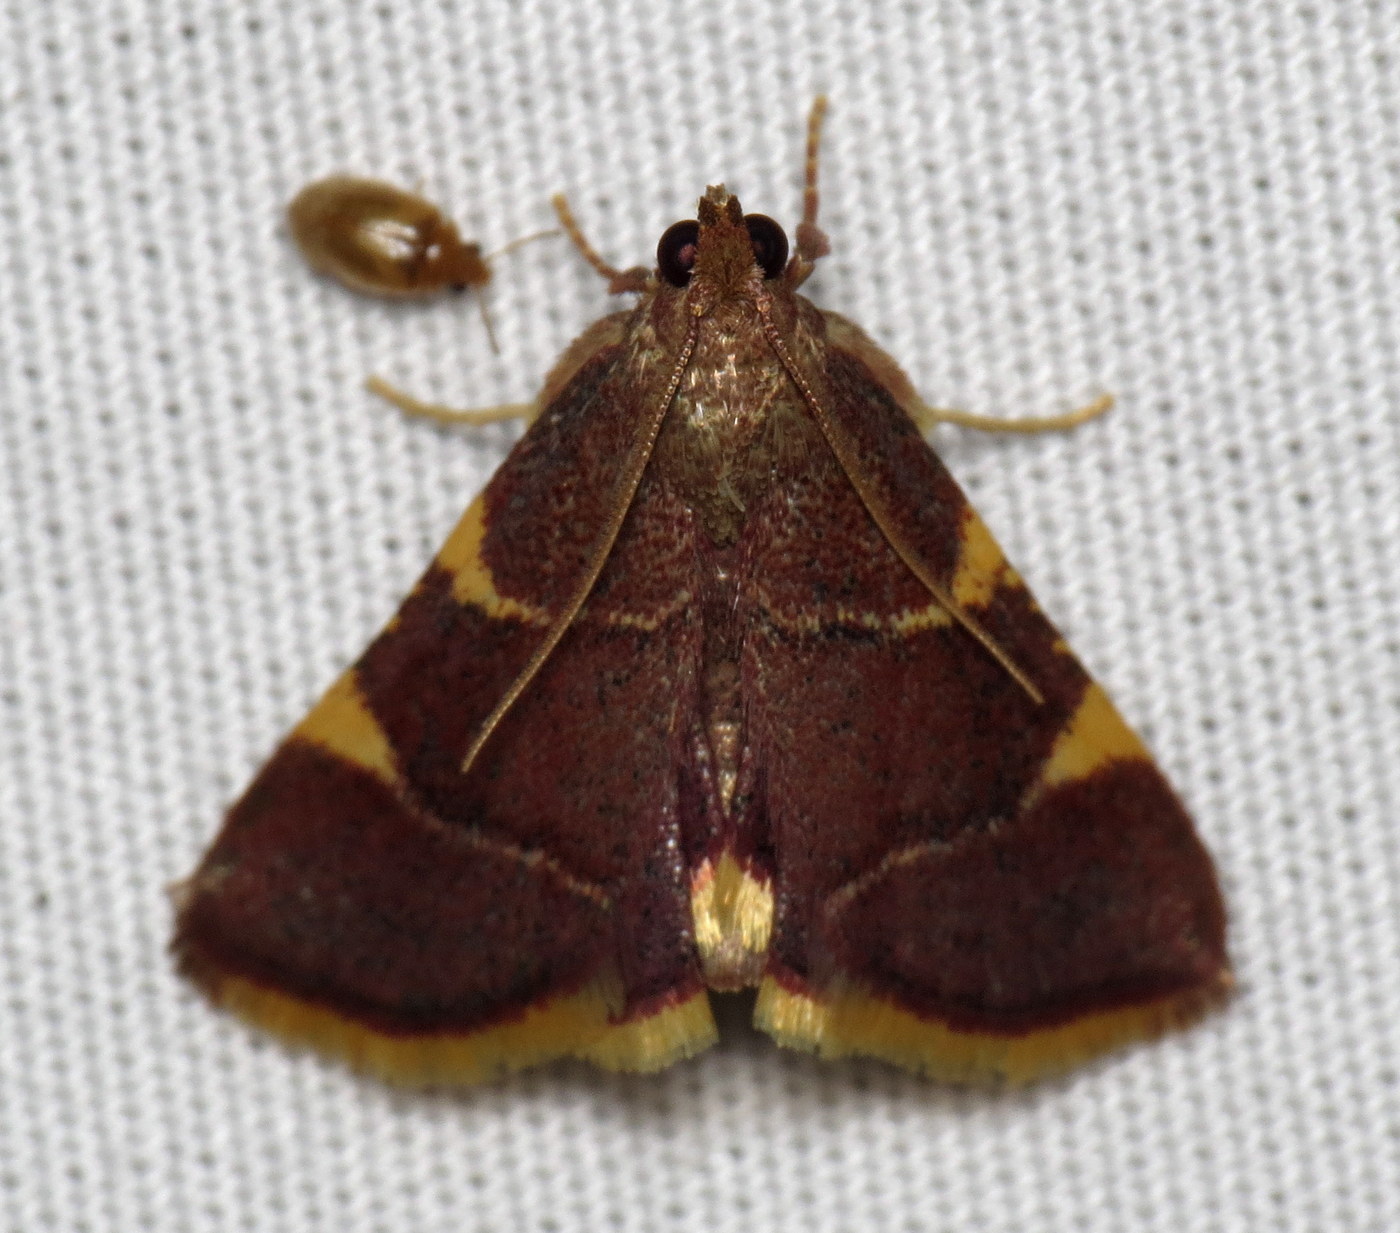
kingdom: Animalia
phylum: Arthropoda
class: Insecta
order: Lepidoptera
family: Pyralidae
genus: Hypsopygia
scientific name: Hypsopygia olinalis
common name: Yellow-fringed dolichomia moth
